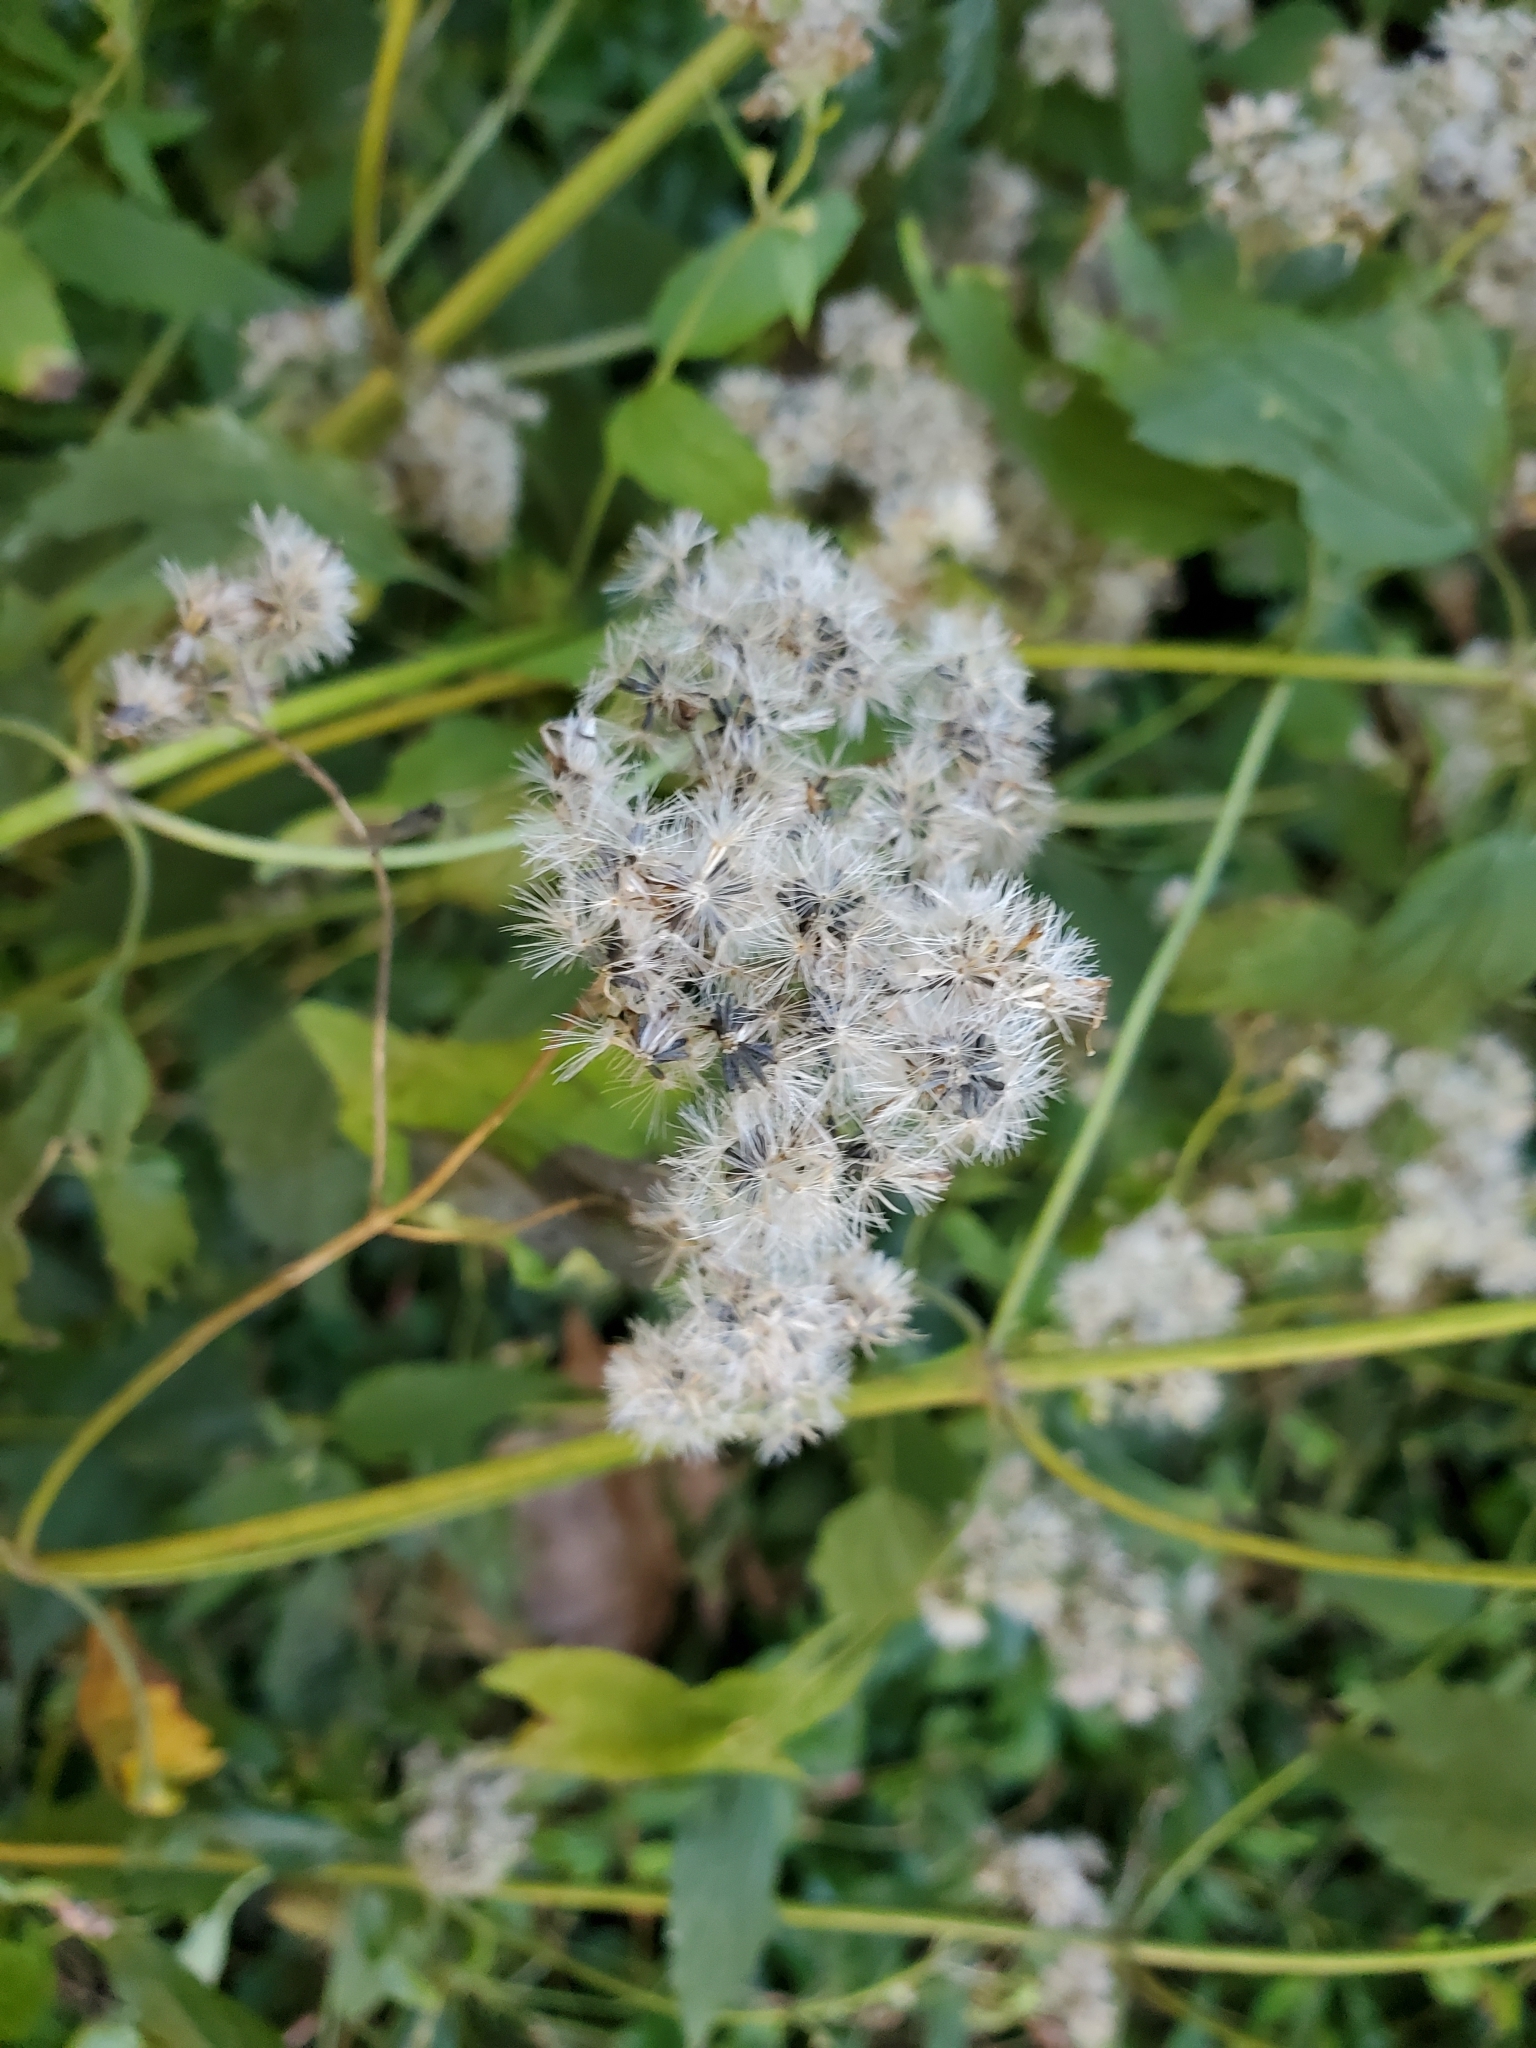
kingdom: Plantae
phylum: Tracheophyta
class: Magnoliopsida
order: Asterales
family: Asteraceae
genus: Ageratina
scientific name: Ageratina altissima
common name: White snakeroot
